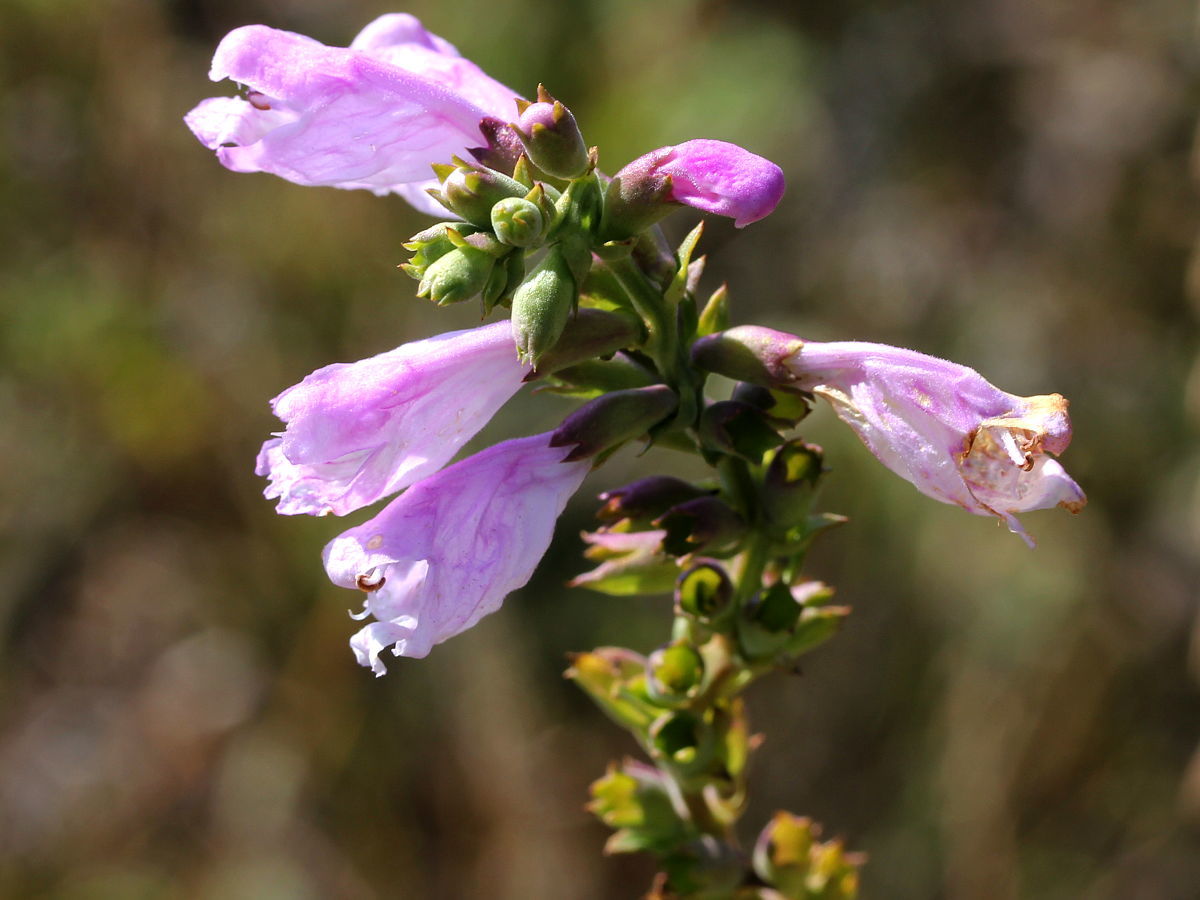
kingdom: Plantae
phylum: Tracheophyta
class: Magnoliopsida
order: Lamiales
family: Lamiaceae
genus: Physostegia
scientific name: Physostegia virginiana
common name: Obedient-plant
